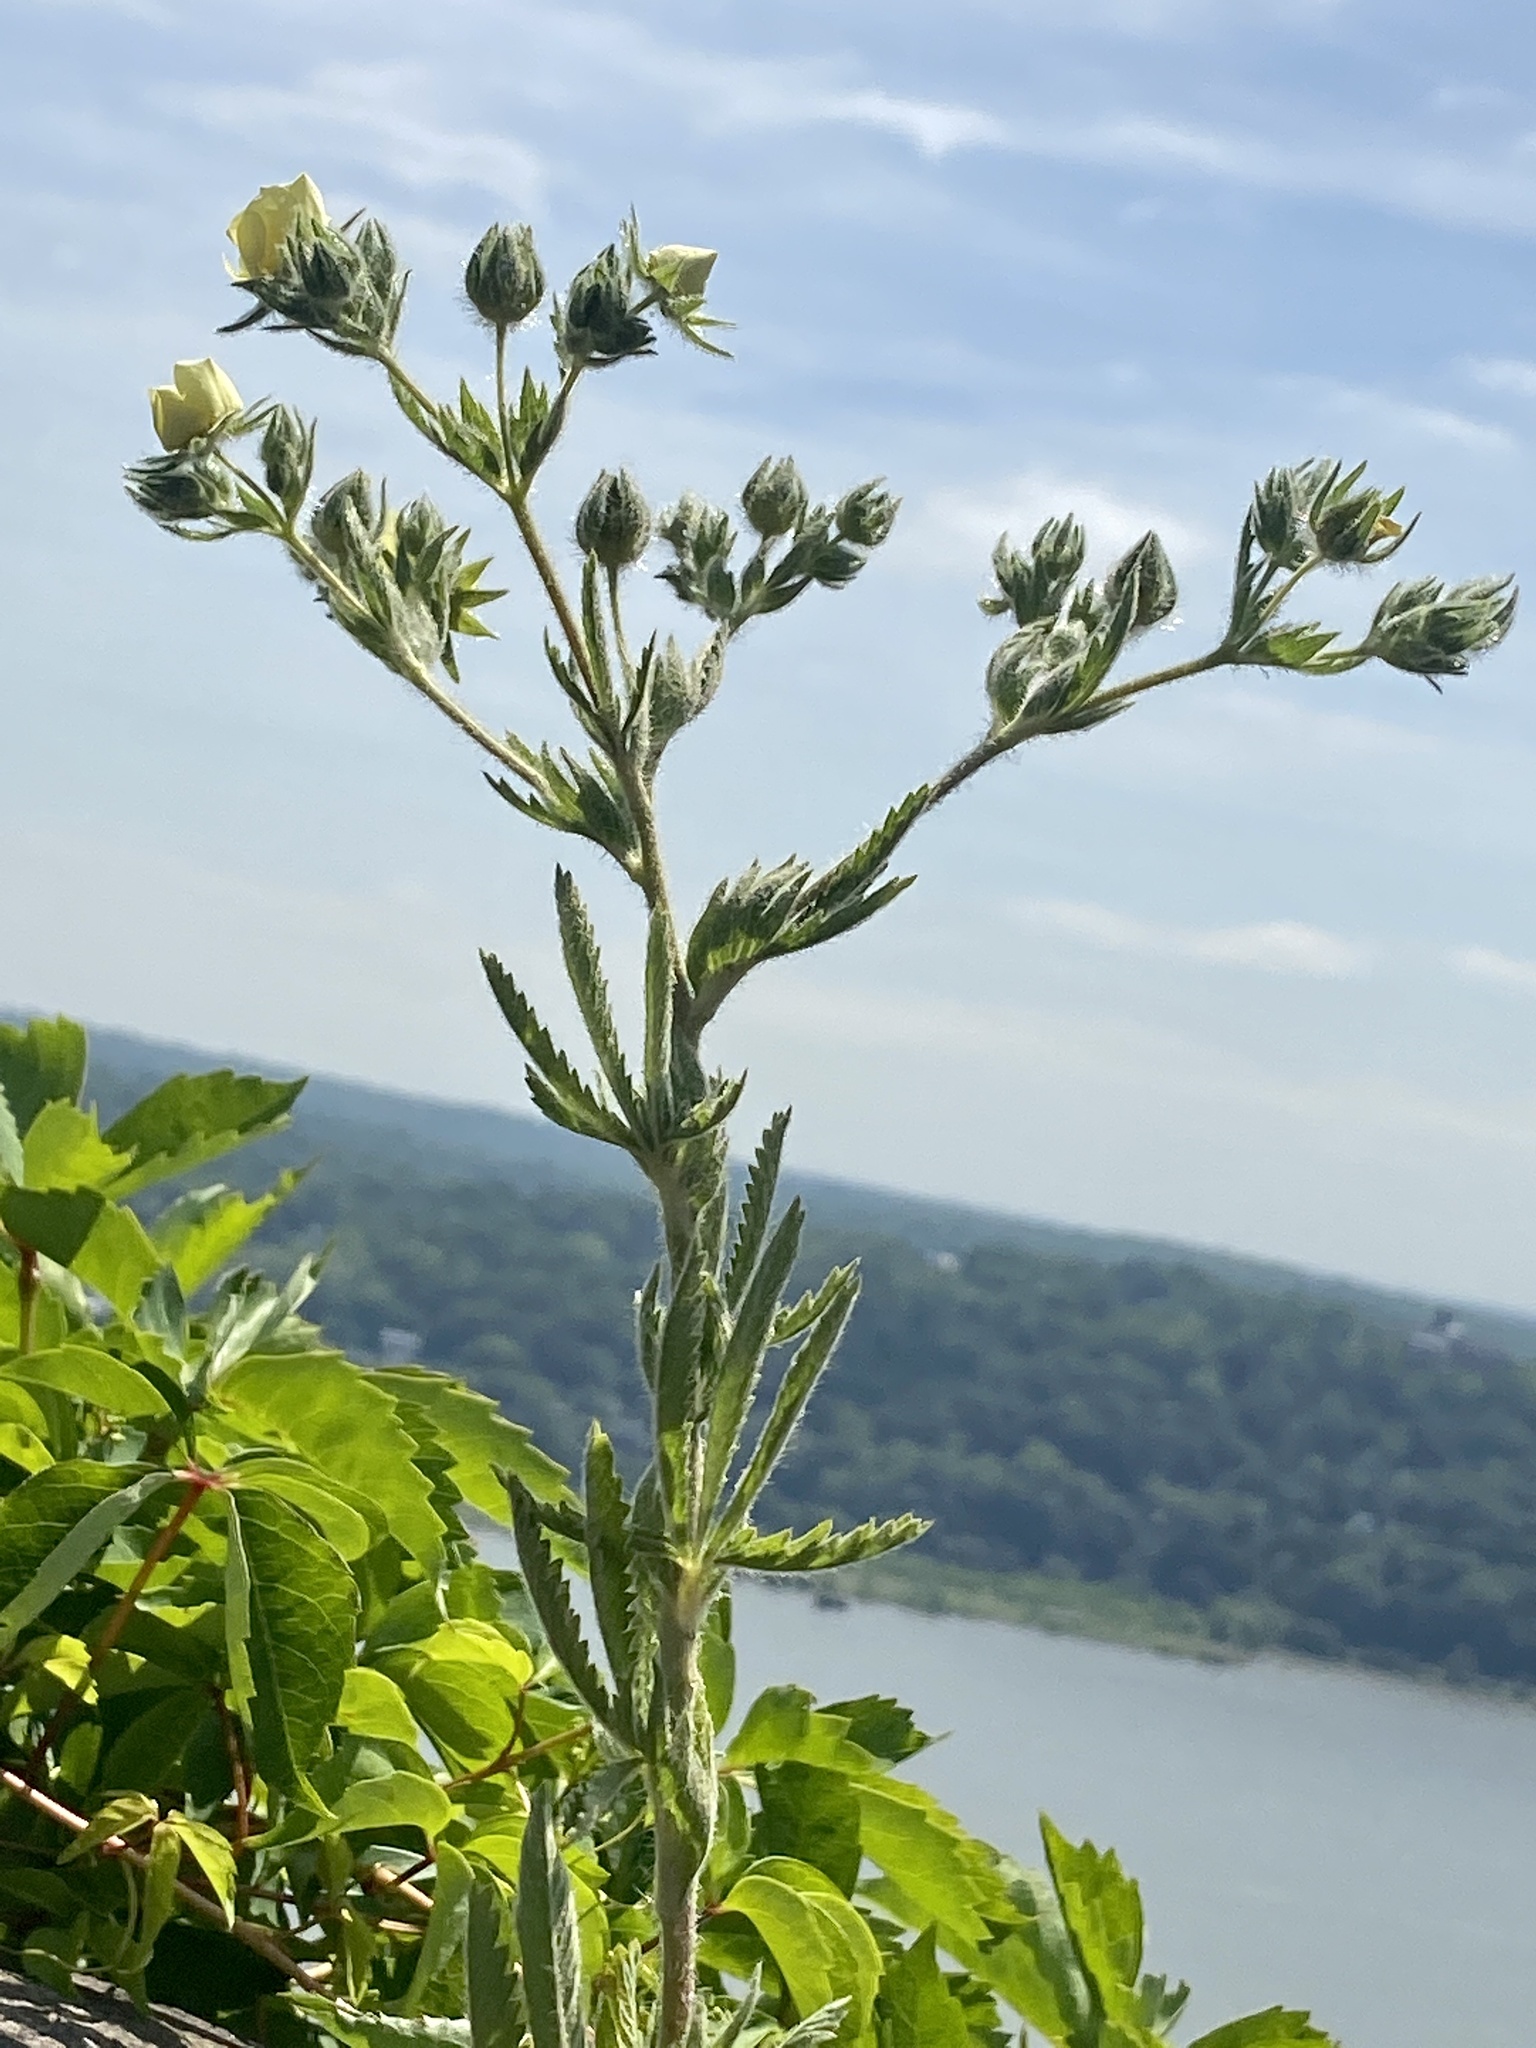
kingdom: Plantae
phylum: Tracheophyta
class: Magnoliopsida
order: Rosales
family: Rosaceae
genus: Potentilla
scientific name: Potentilla recta
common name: Sulphur cinquefoil
